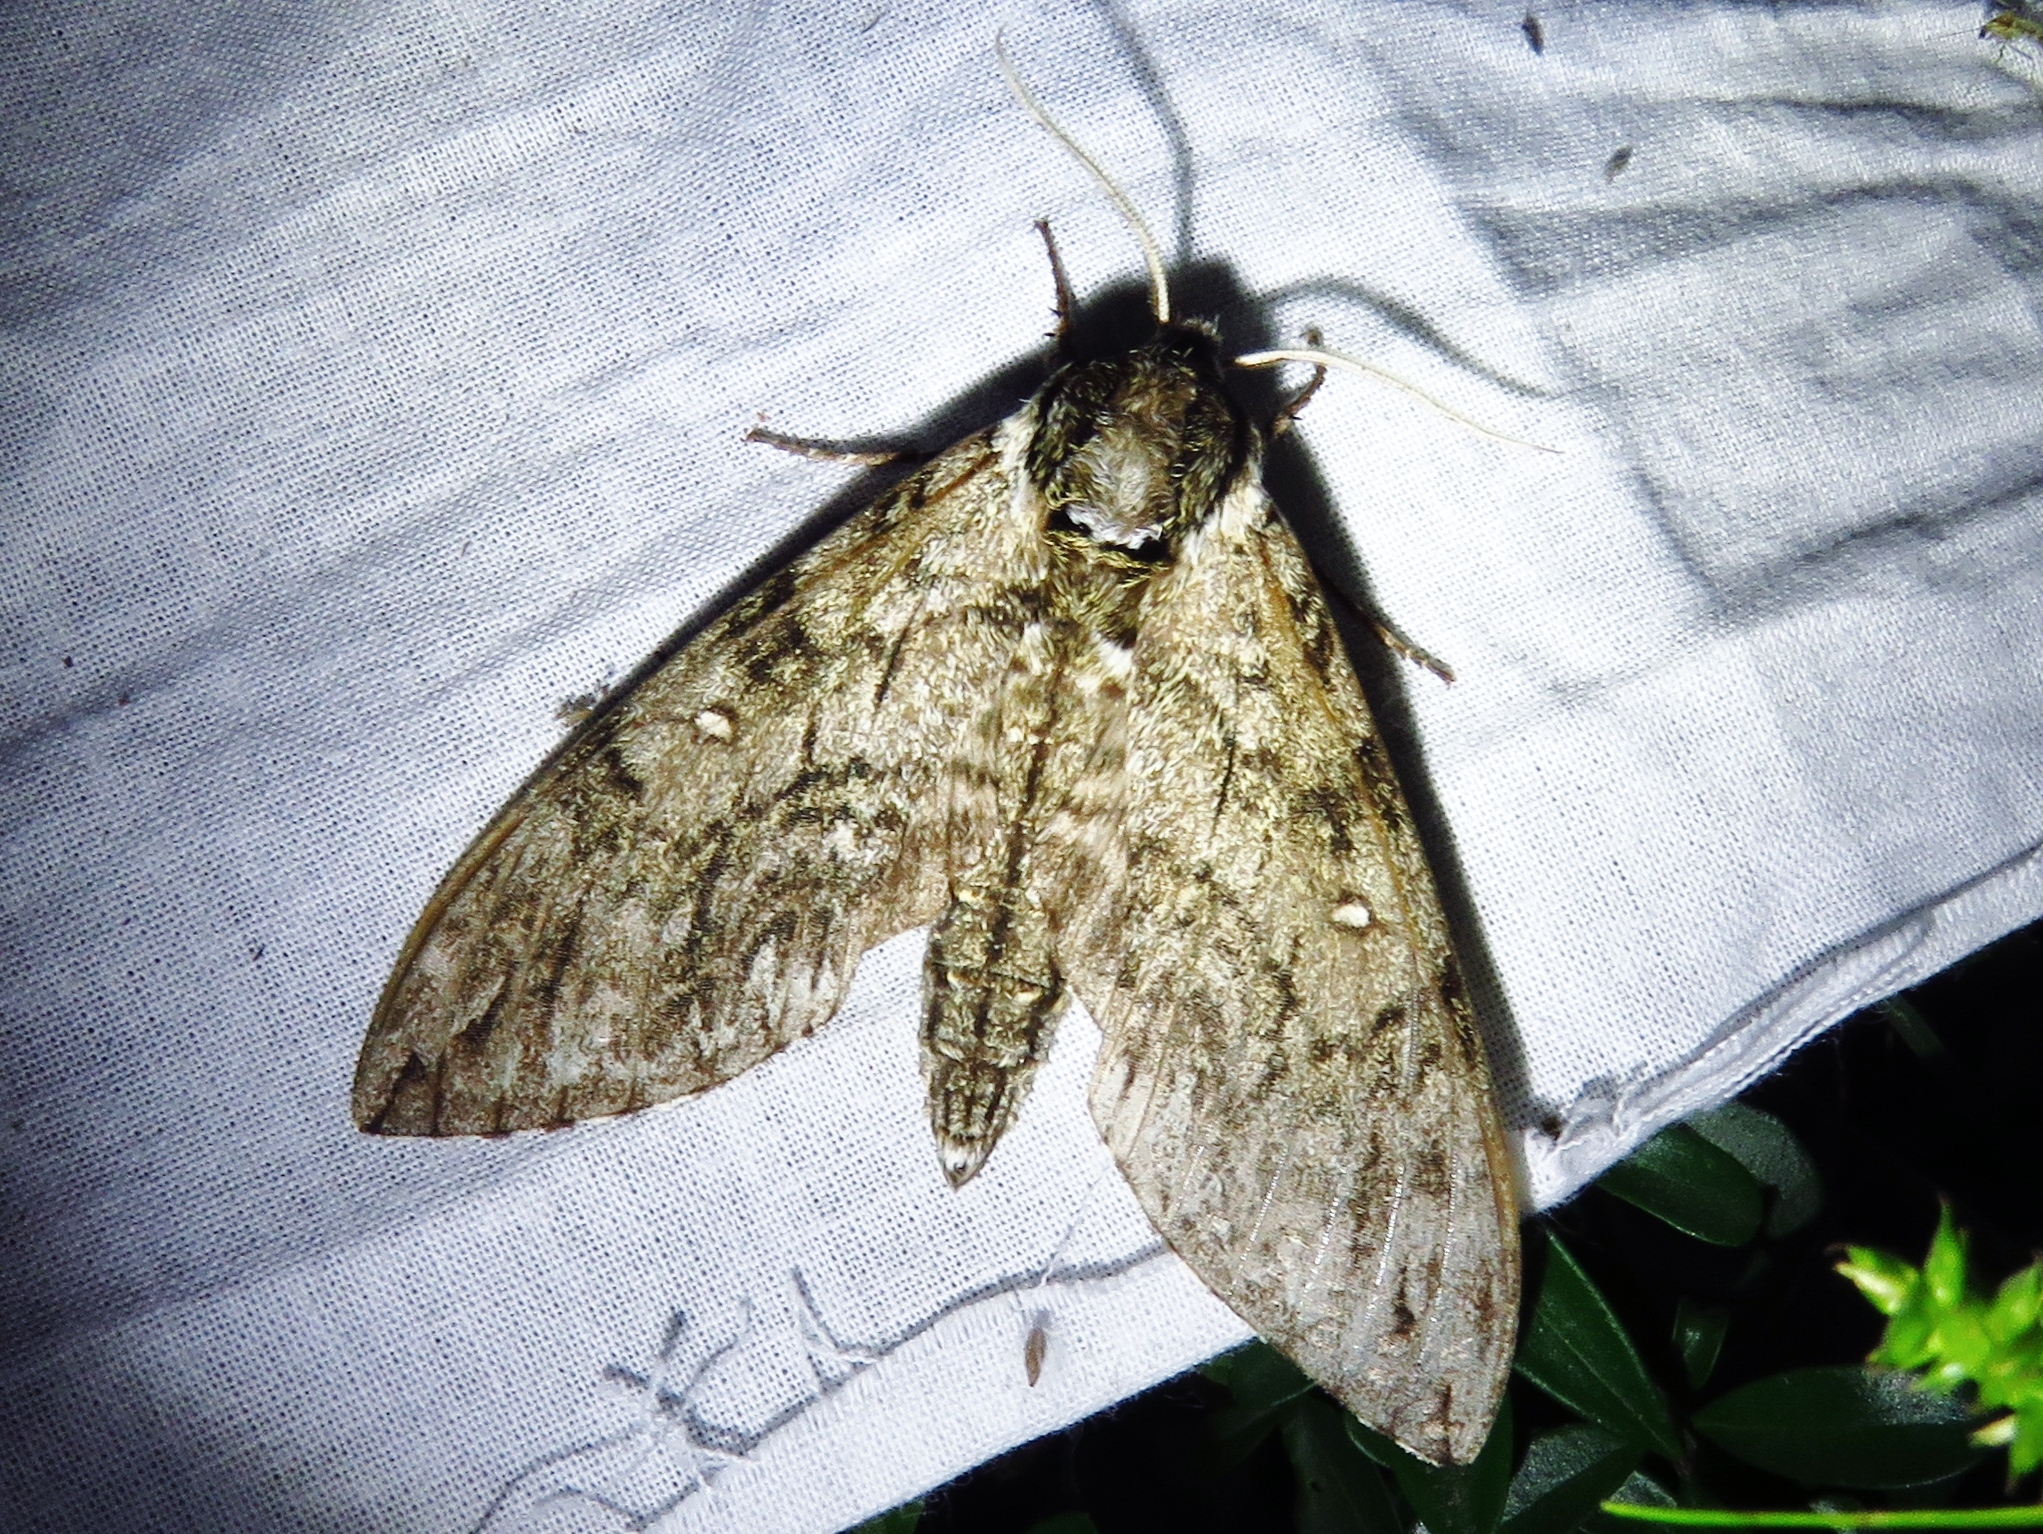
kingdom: Animalia
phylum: Arthropoda
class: Insecta
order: Lepidoptera
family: Sphingidae
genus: Ceratomia
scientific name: Ceratomia undulosa
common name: Waved sphinx
